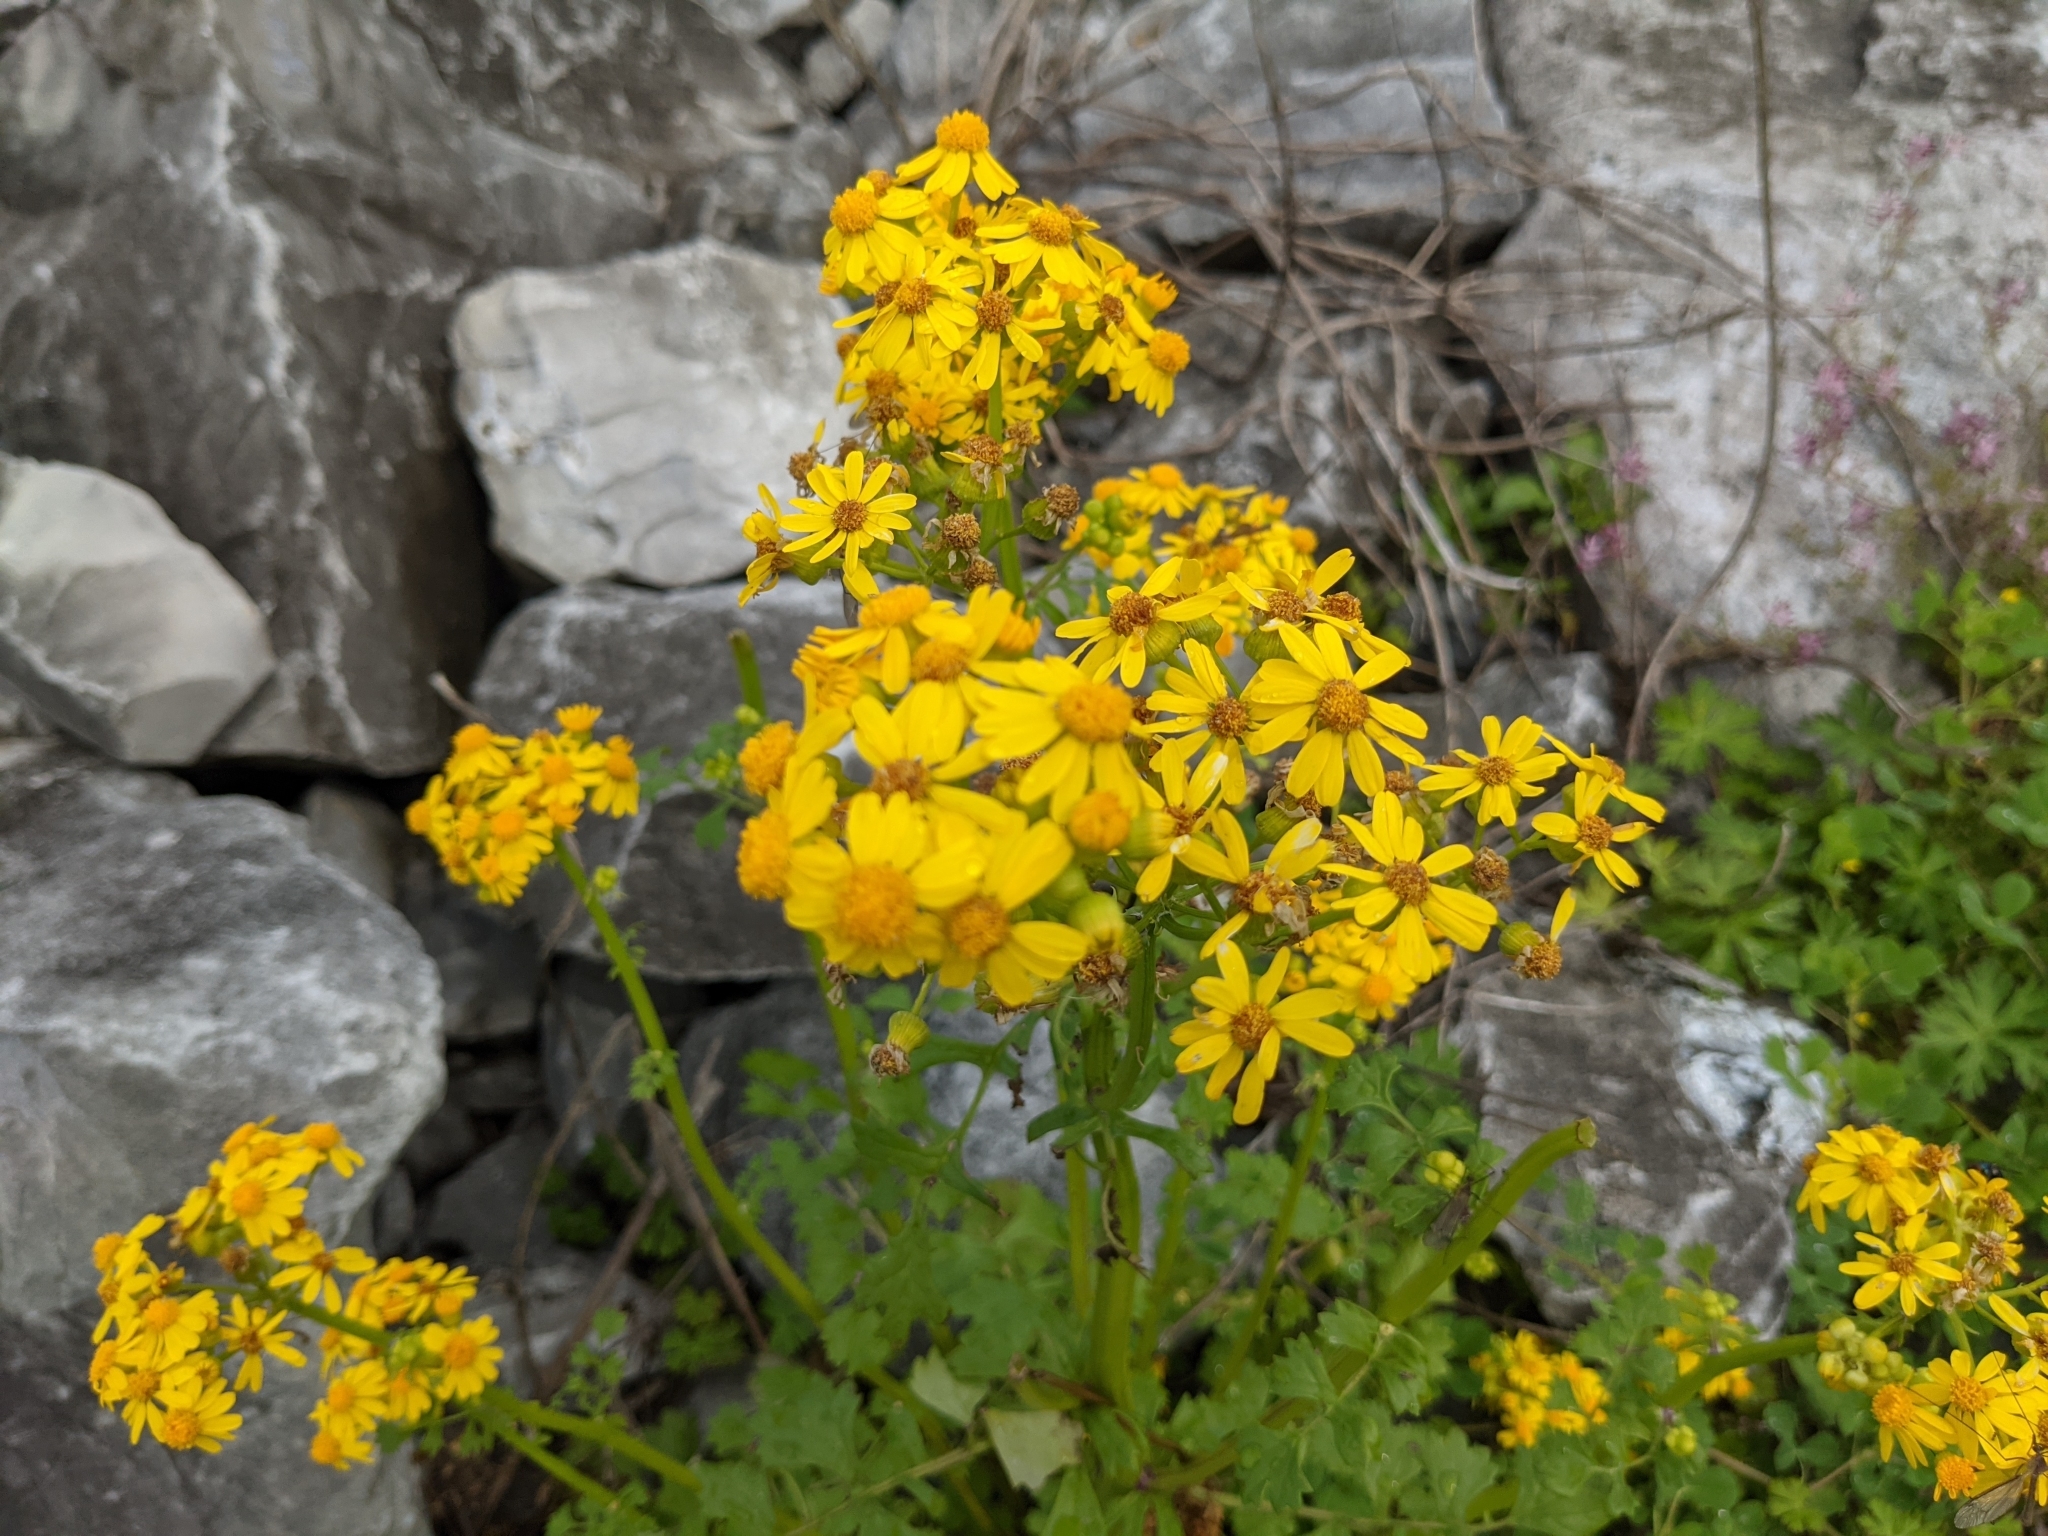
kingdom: Plantae
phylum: Tracheophyta
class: Magnoliopsida
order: Asterales
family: Asteraceae
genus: Packera
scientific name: Packera glabella
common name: Butterweed
